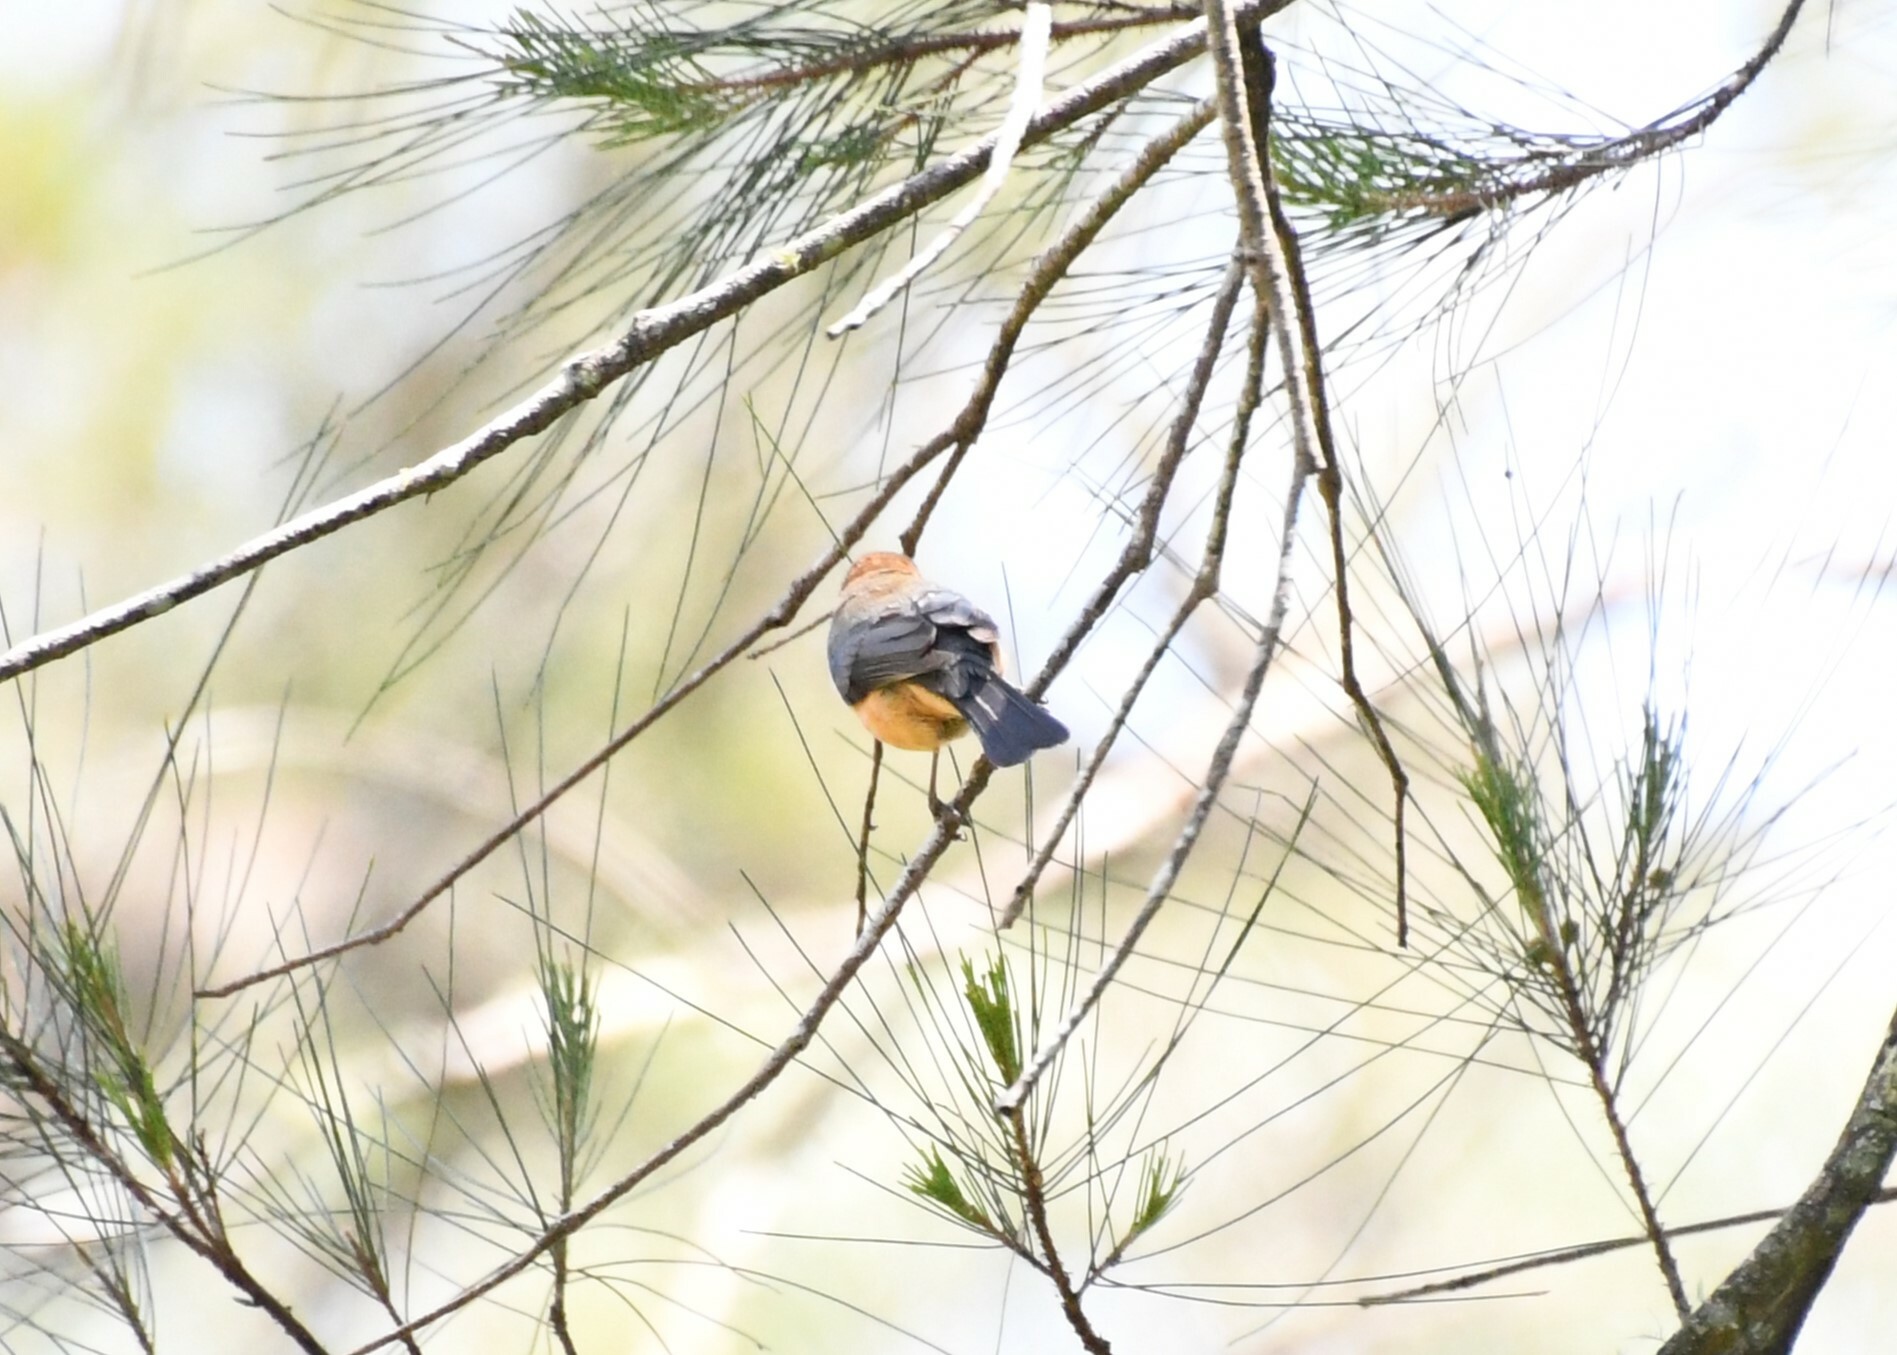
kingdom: Animalia
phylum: Chordata
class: Aves
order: Passeriformes
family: Meliphagidae
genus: Acanthorhynchus
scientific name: Acanthorhynchus tenuirostris
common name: Eastern spinebill
